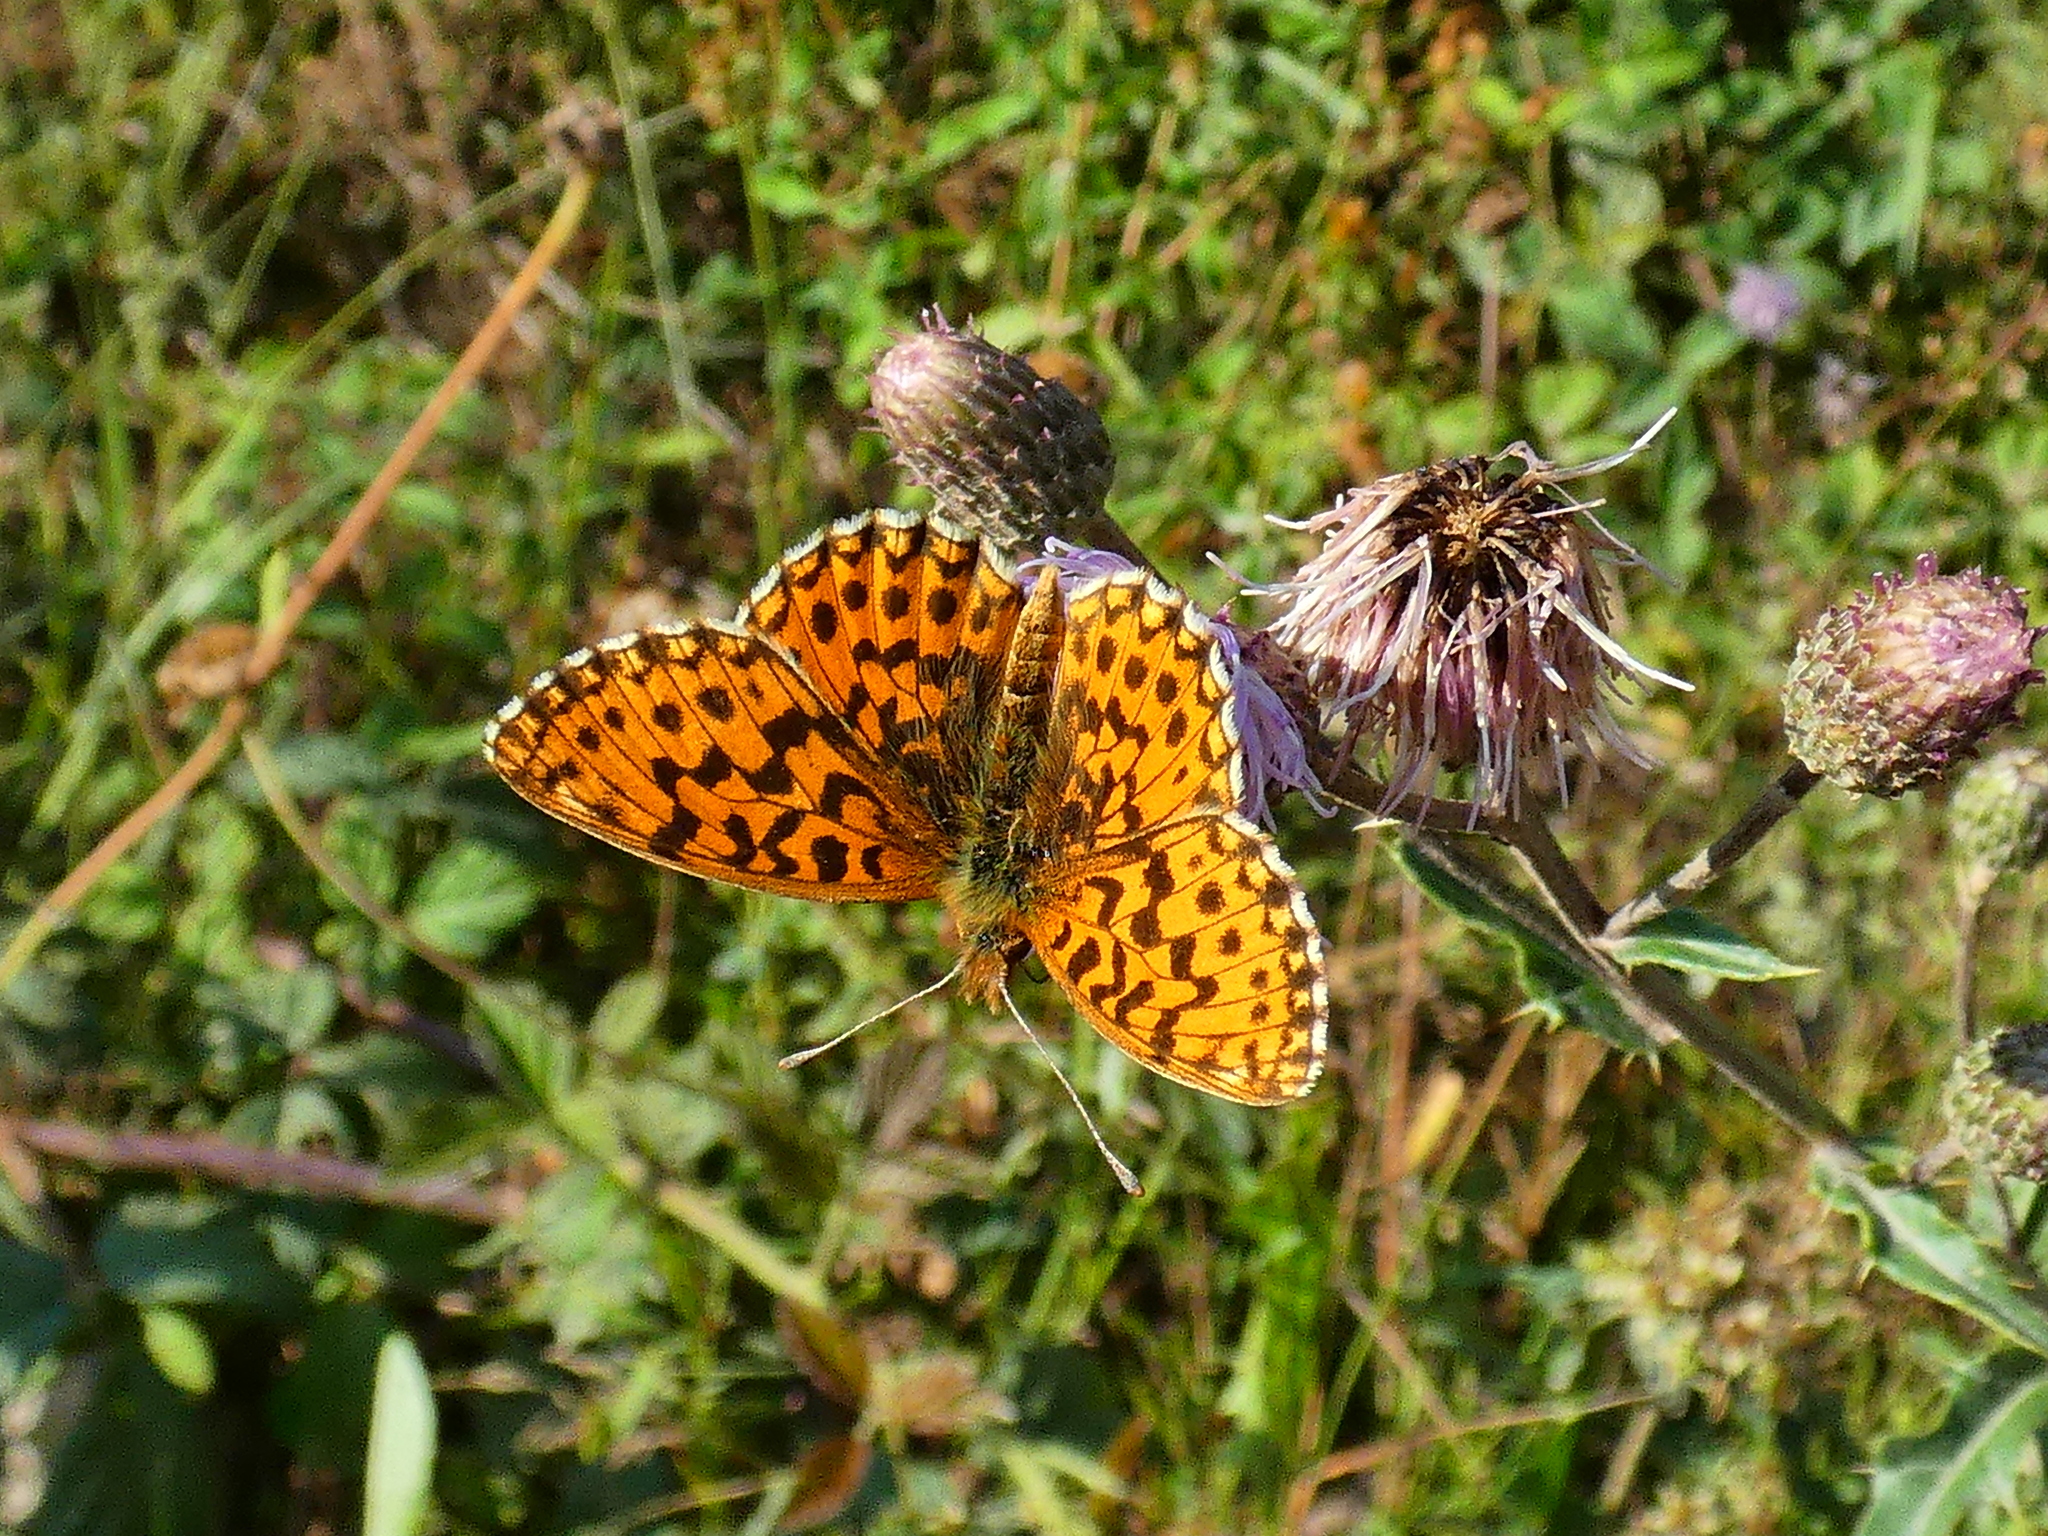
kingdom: Animalia
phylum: Arthropoda
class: Insecta
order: Lepidoptera
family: Nymphalidae
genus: Boloria
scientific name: Boloria dia
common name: Weaver's fritillary
